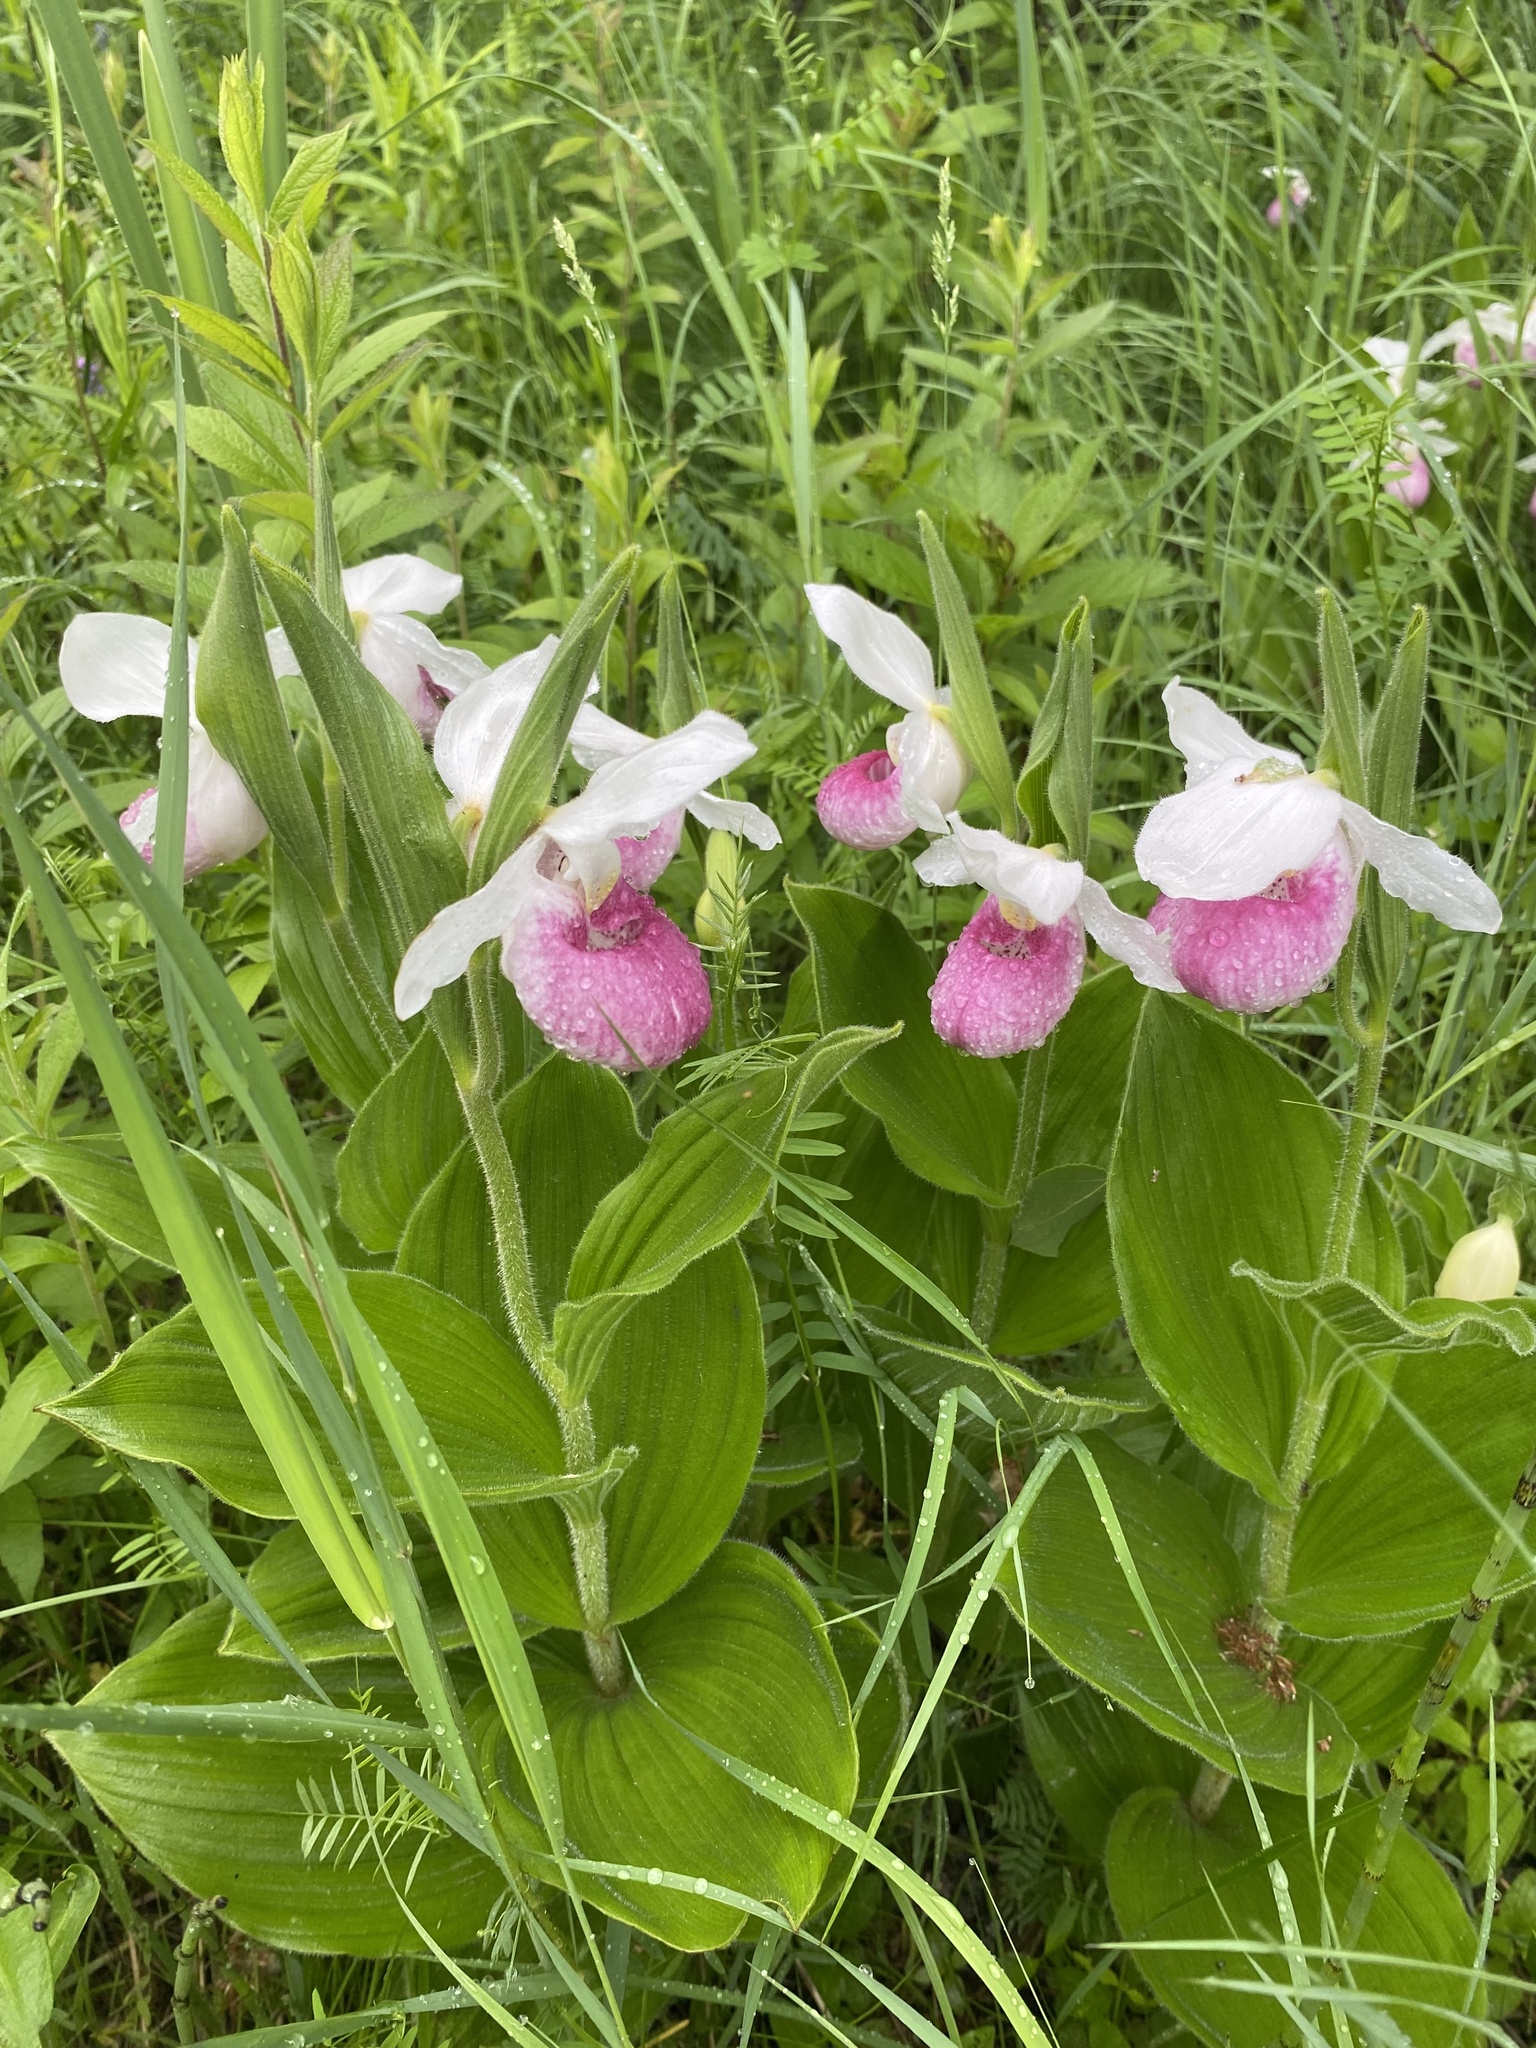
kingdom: Plantae
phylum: Tracheophyta
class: Liliopsida
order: Asparagales
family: Orchidaceae
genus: Cypripedium
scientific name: Cypripedium reginae
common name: Queen lady's-slipper
